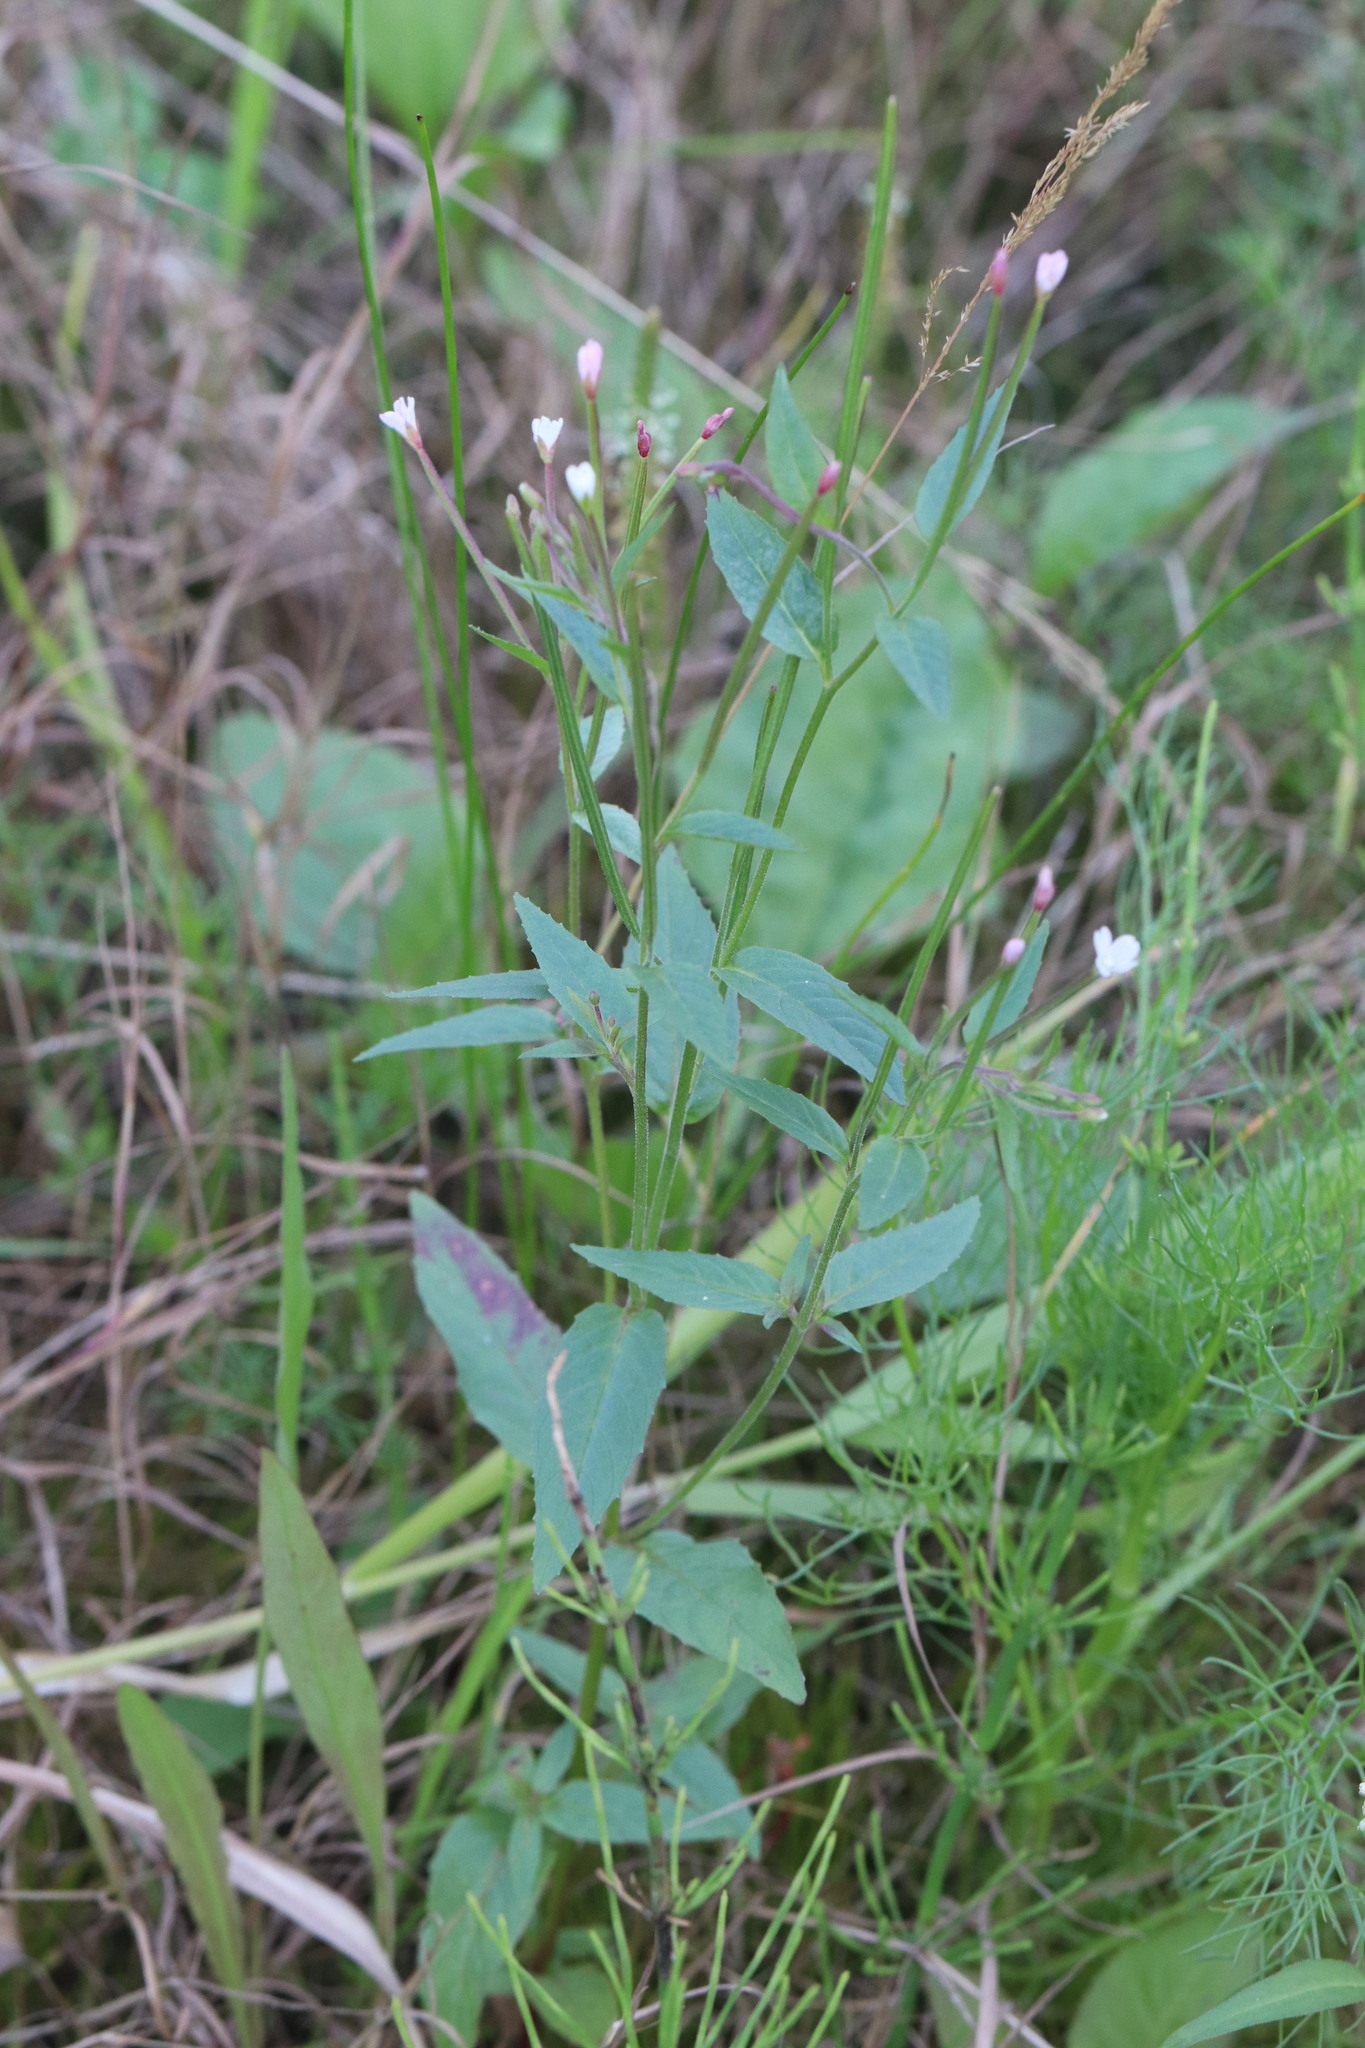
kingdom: Plantae
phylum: Tracheophyta
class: Magnoliopsida
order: Myrtales
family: Onagraceae
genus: Epilobium
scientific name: Epilobium pseudorubescens
